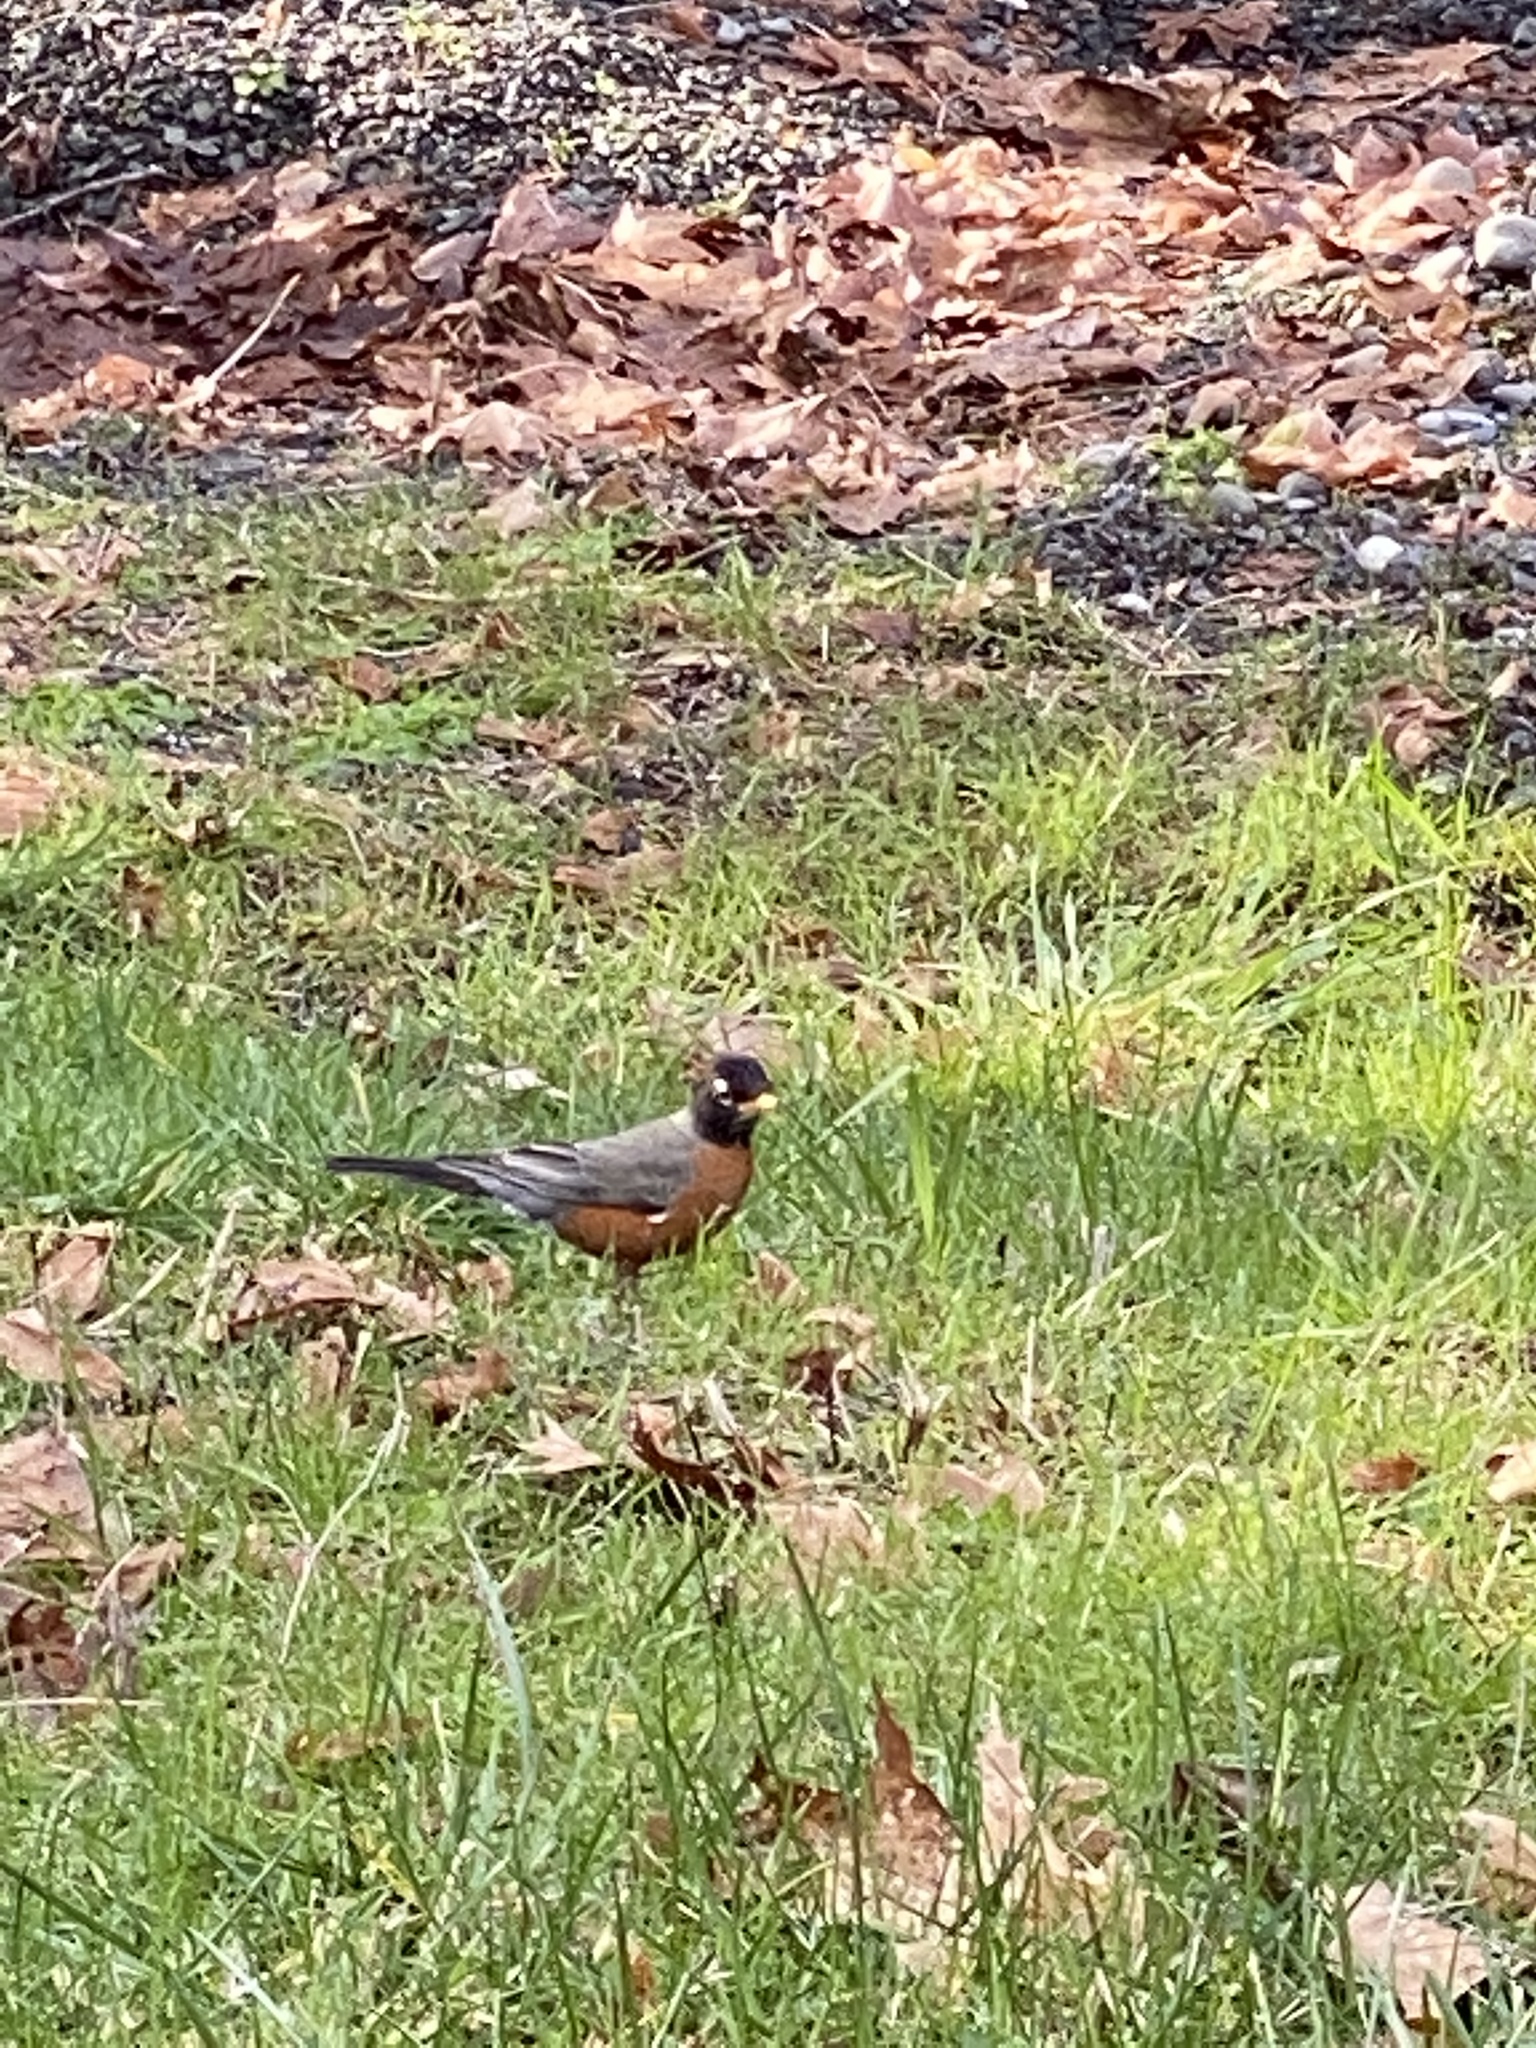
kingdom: Animalia
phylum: Chordata
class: Aves
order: Passeriformes
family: Turdidae
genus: Turdus
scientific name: Turdus migratorius
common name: American robin
